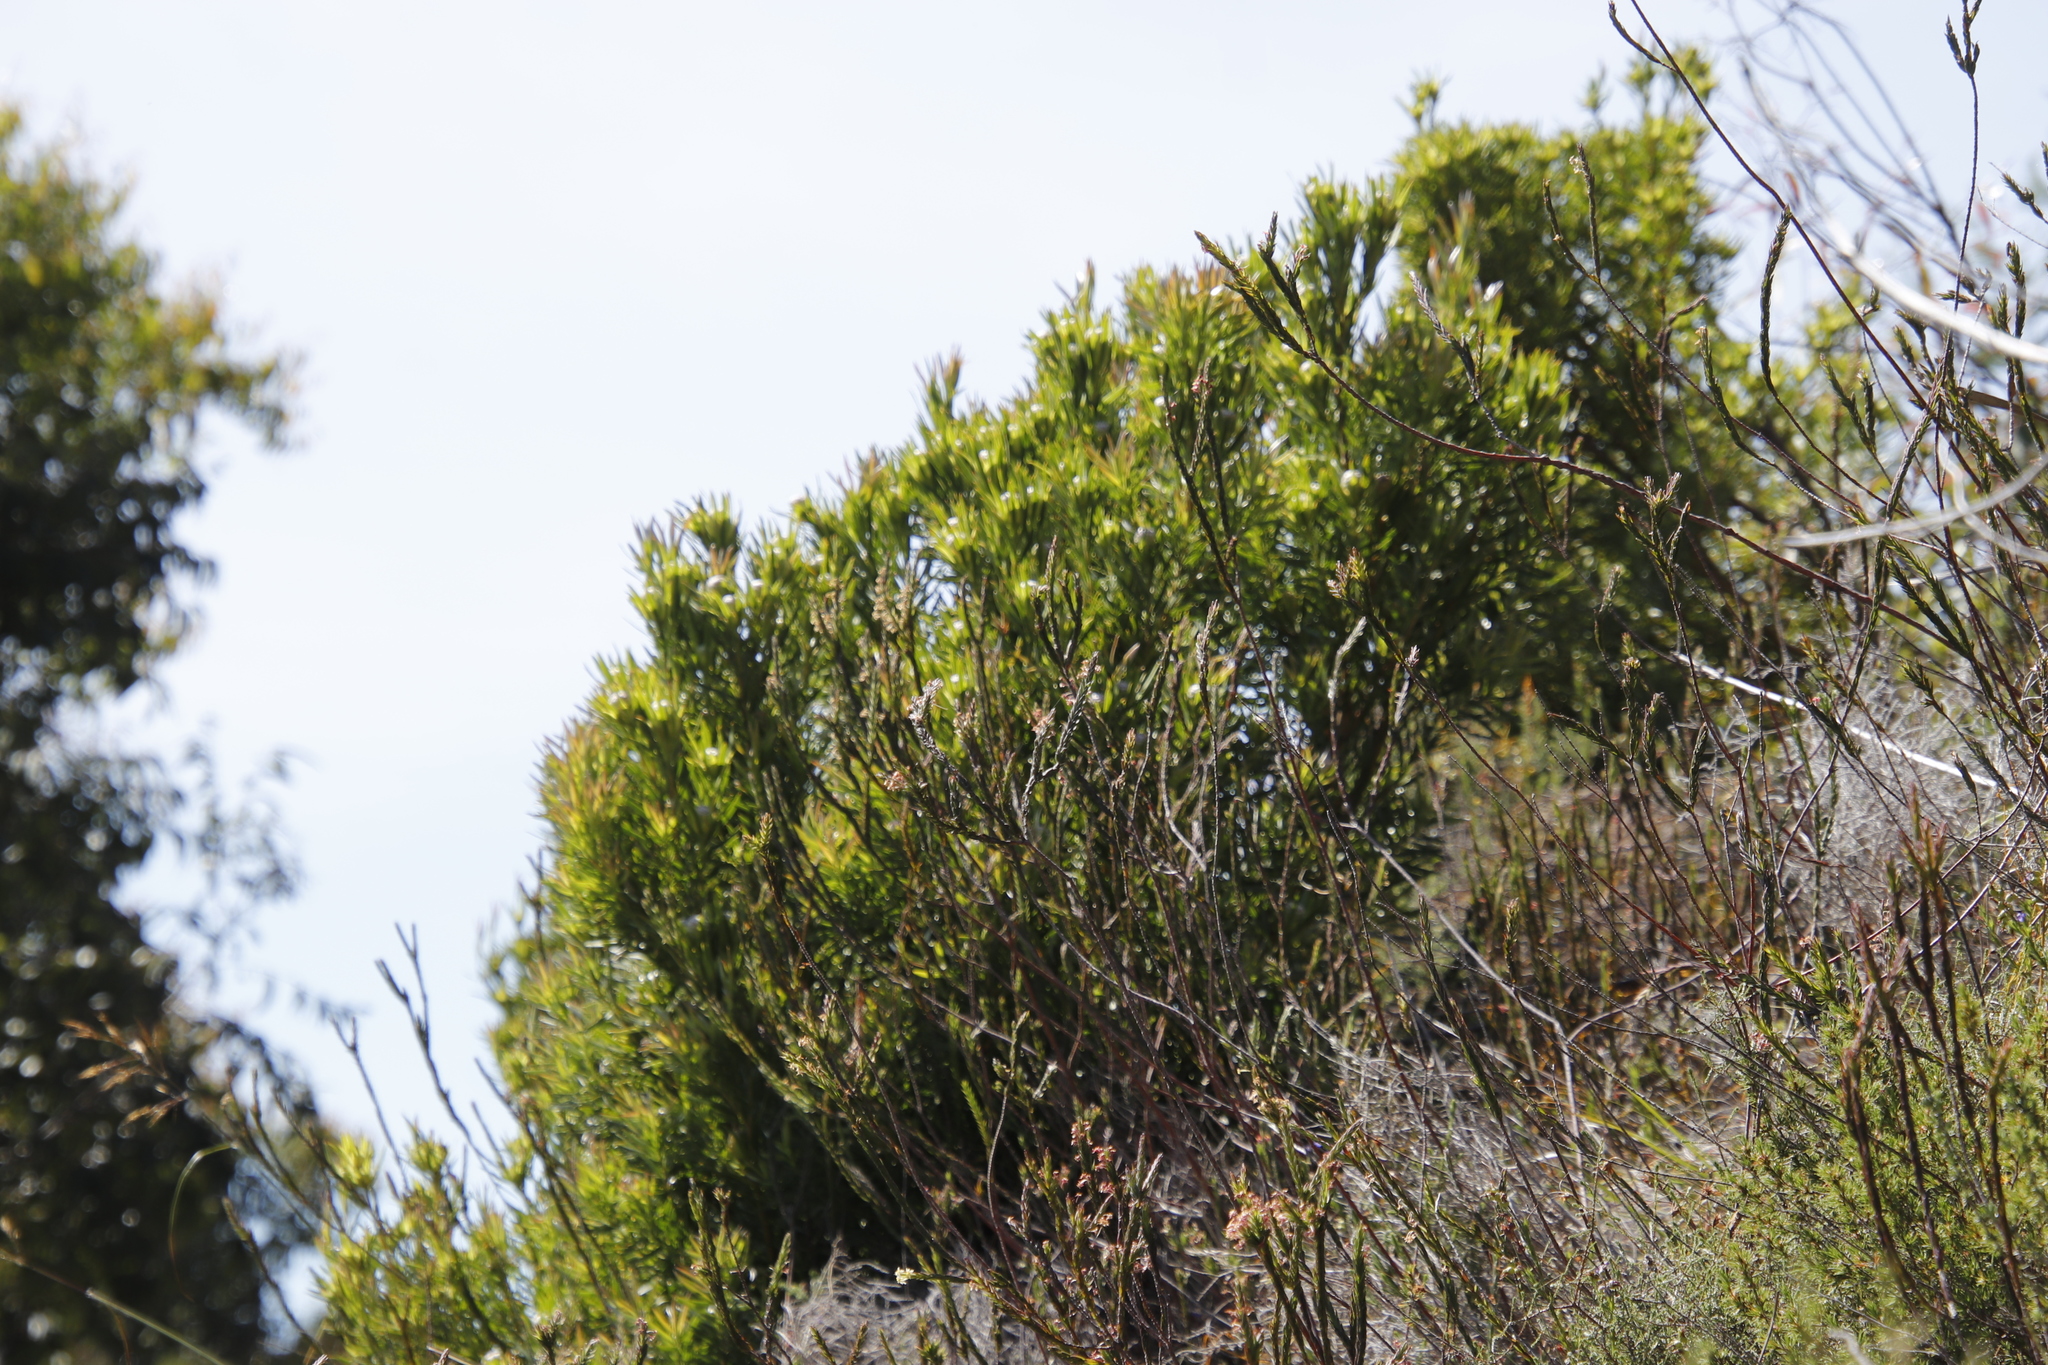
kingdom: Plantae
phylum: Tracheophyta
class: Magnoliopsida
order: Proteales
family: Proteaceae
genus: Leucadendron
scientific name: Leucadendron xanthoconus
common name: Sickle-leaf conebush
